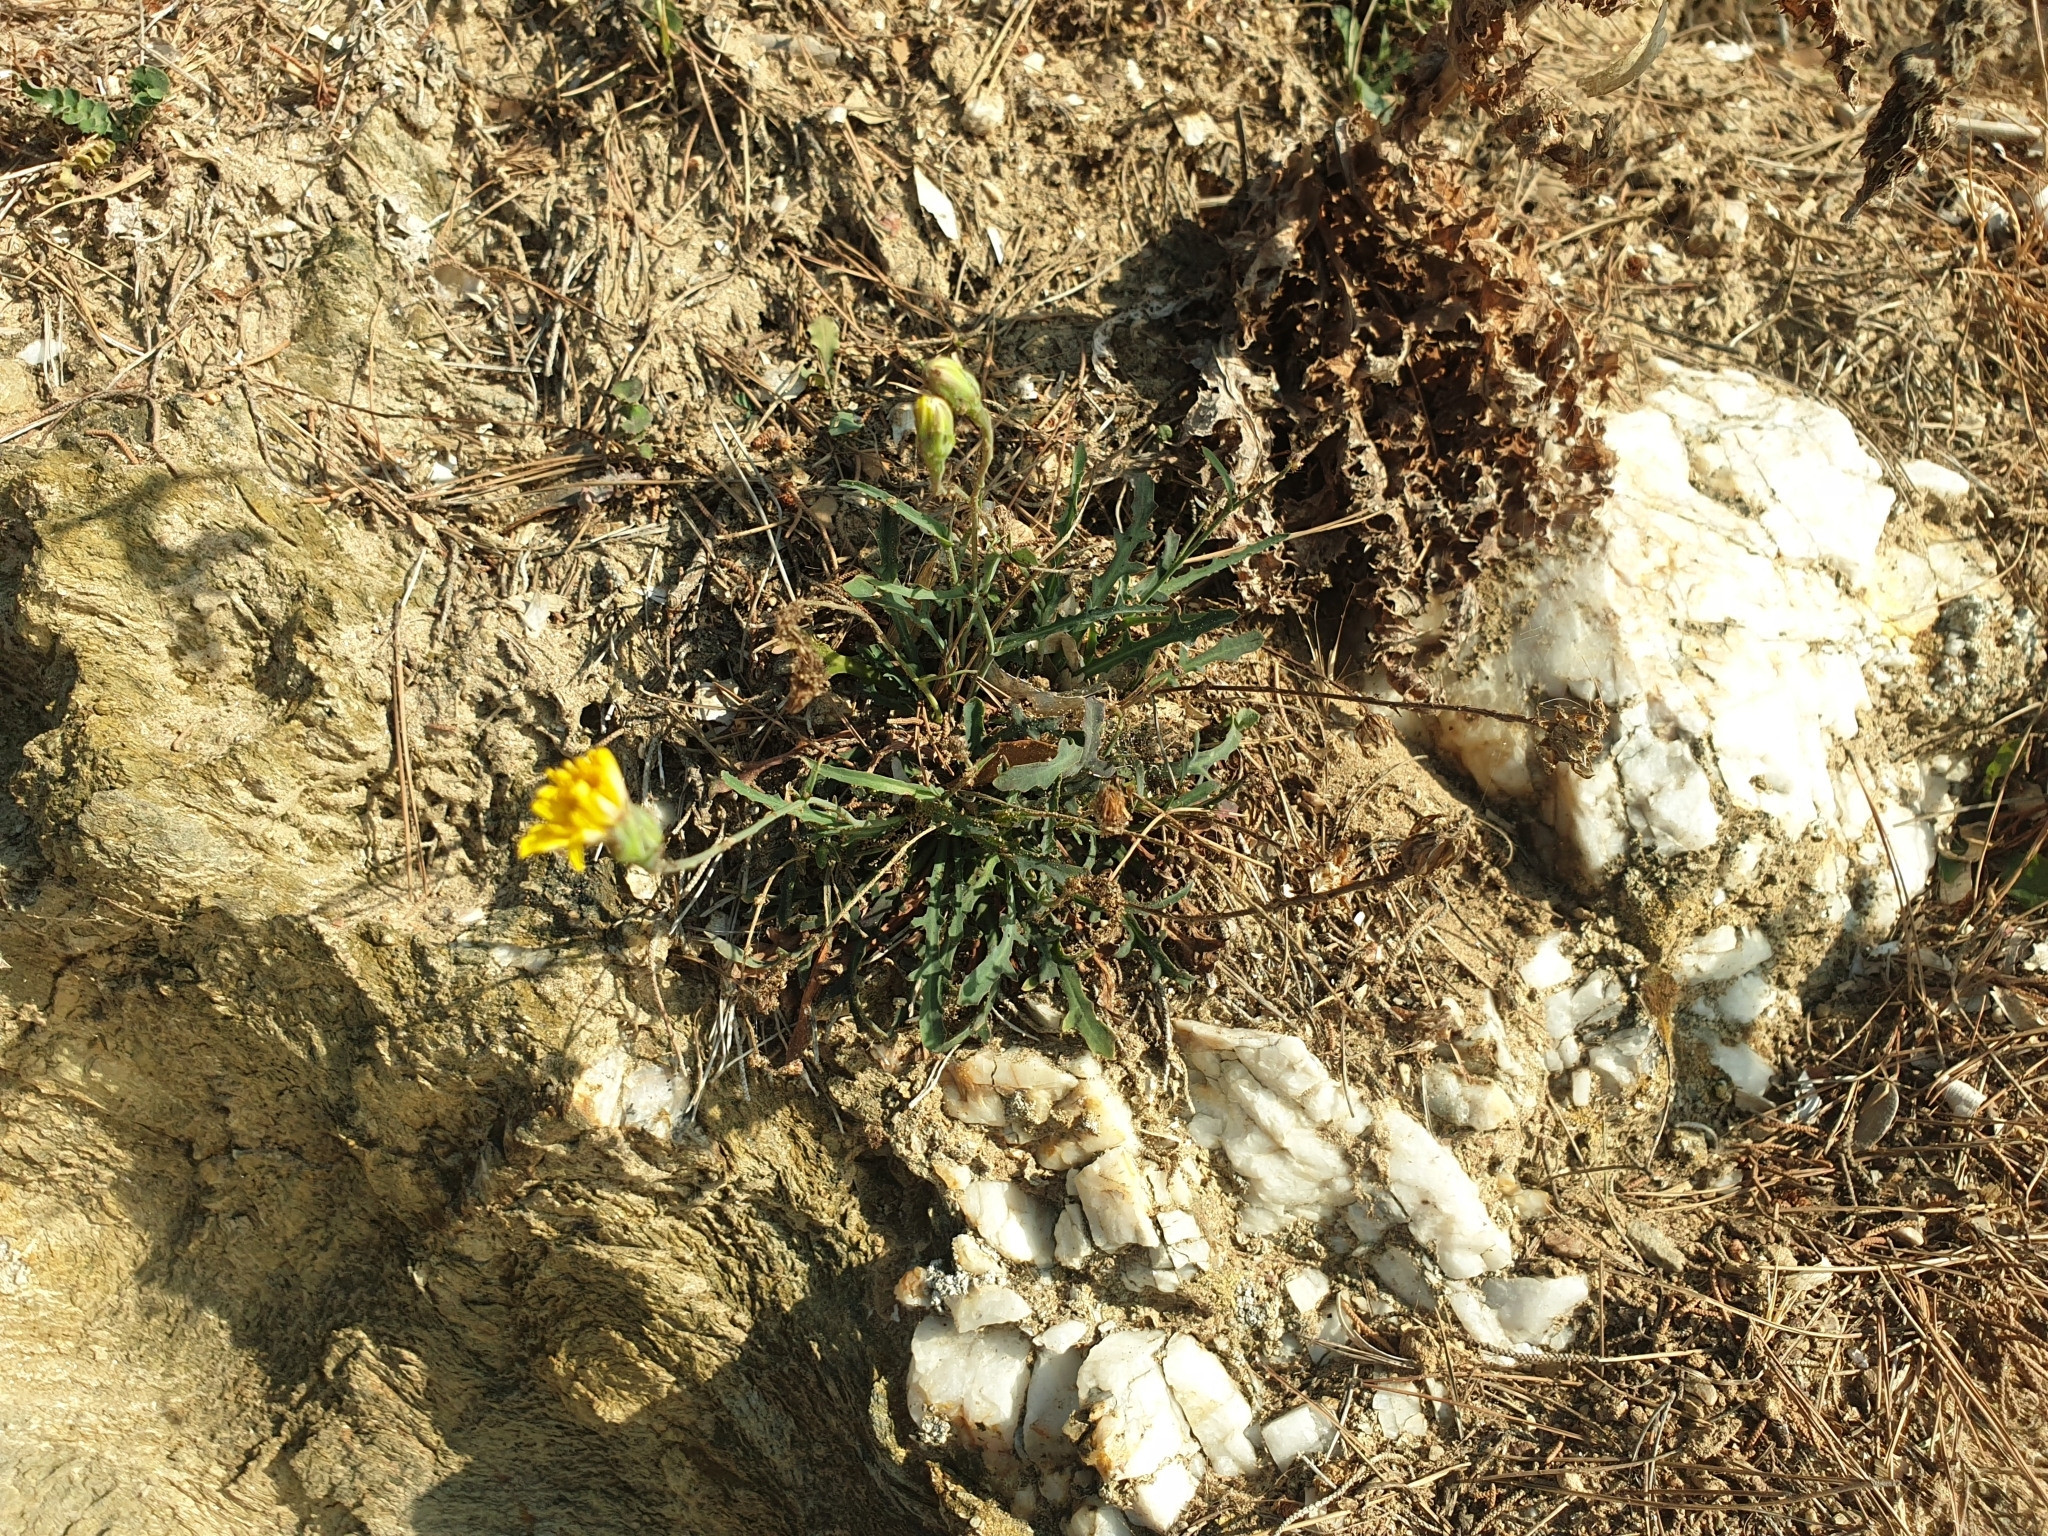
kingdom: Plantae
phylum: Tracheophyta
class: Magnoliopsida
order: Asterales
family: Asteraceae
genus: Reichardia
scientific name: Reichardia picroides
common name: Common brighteyes
